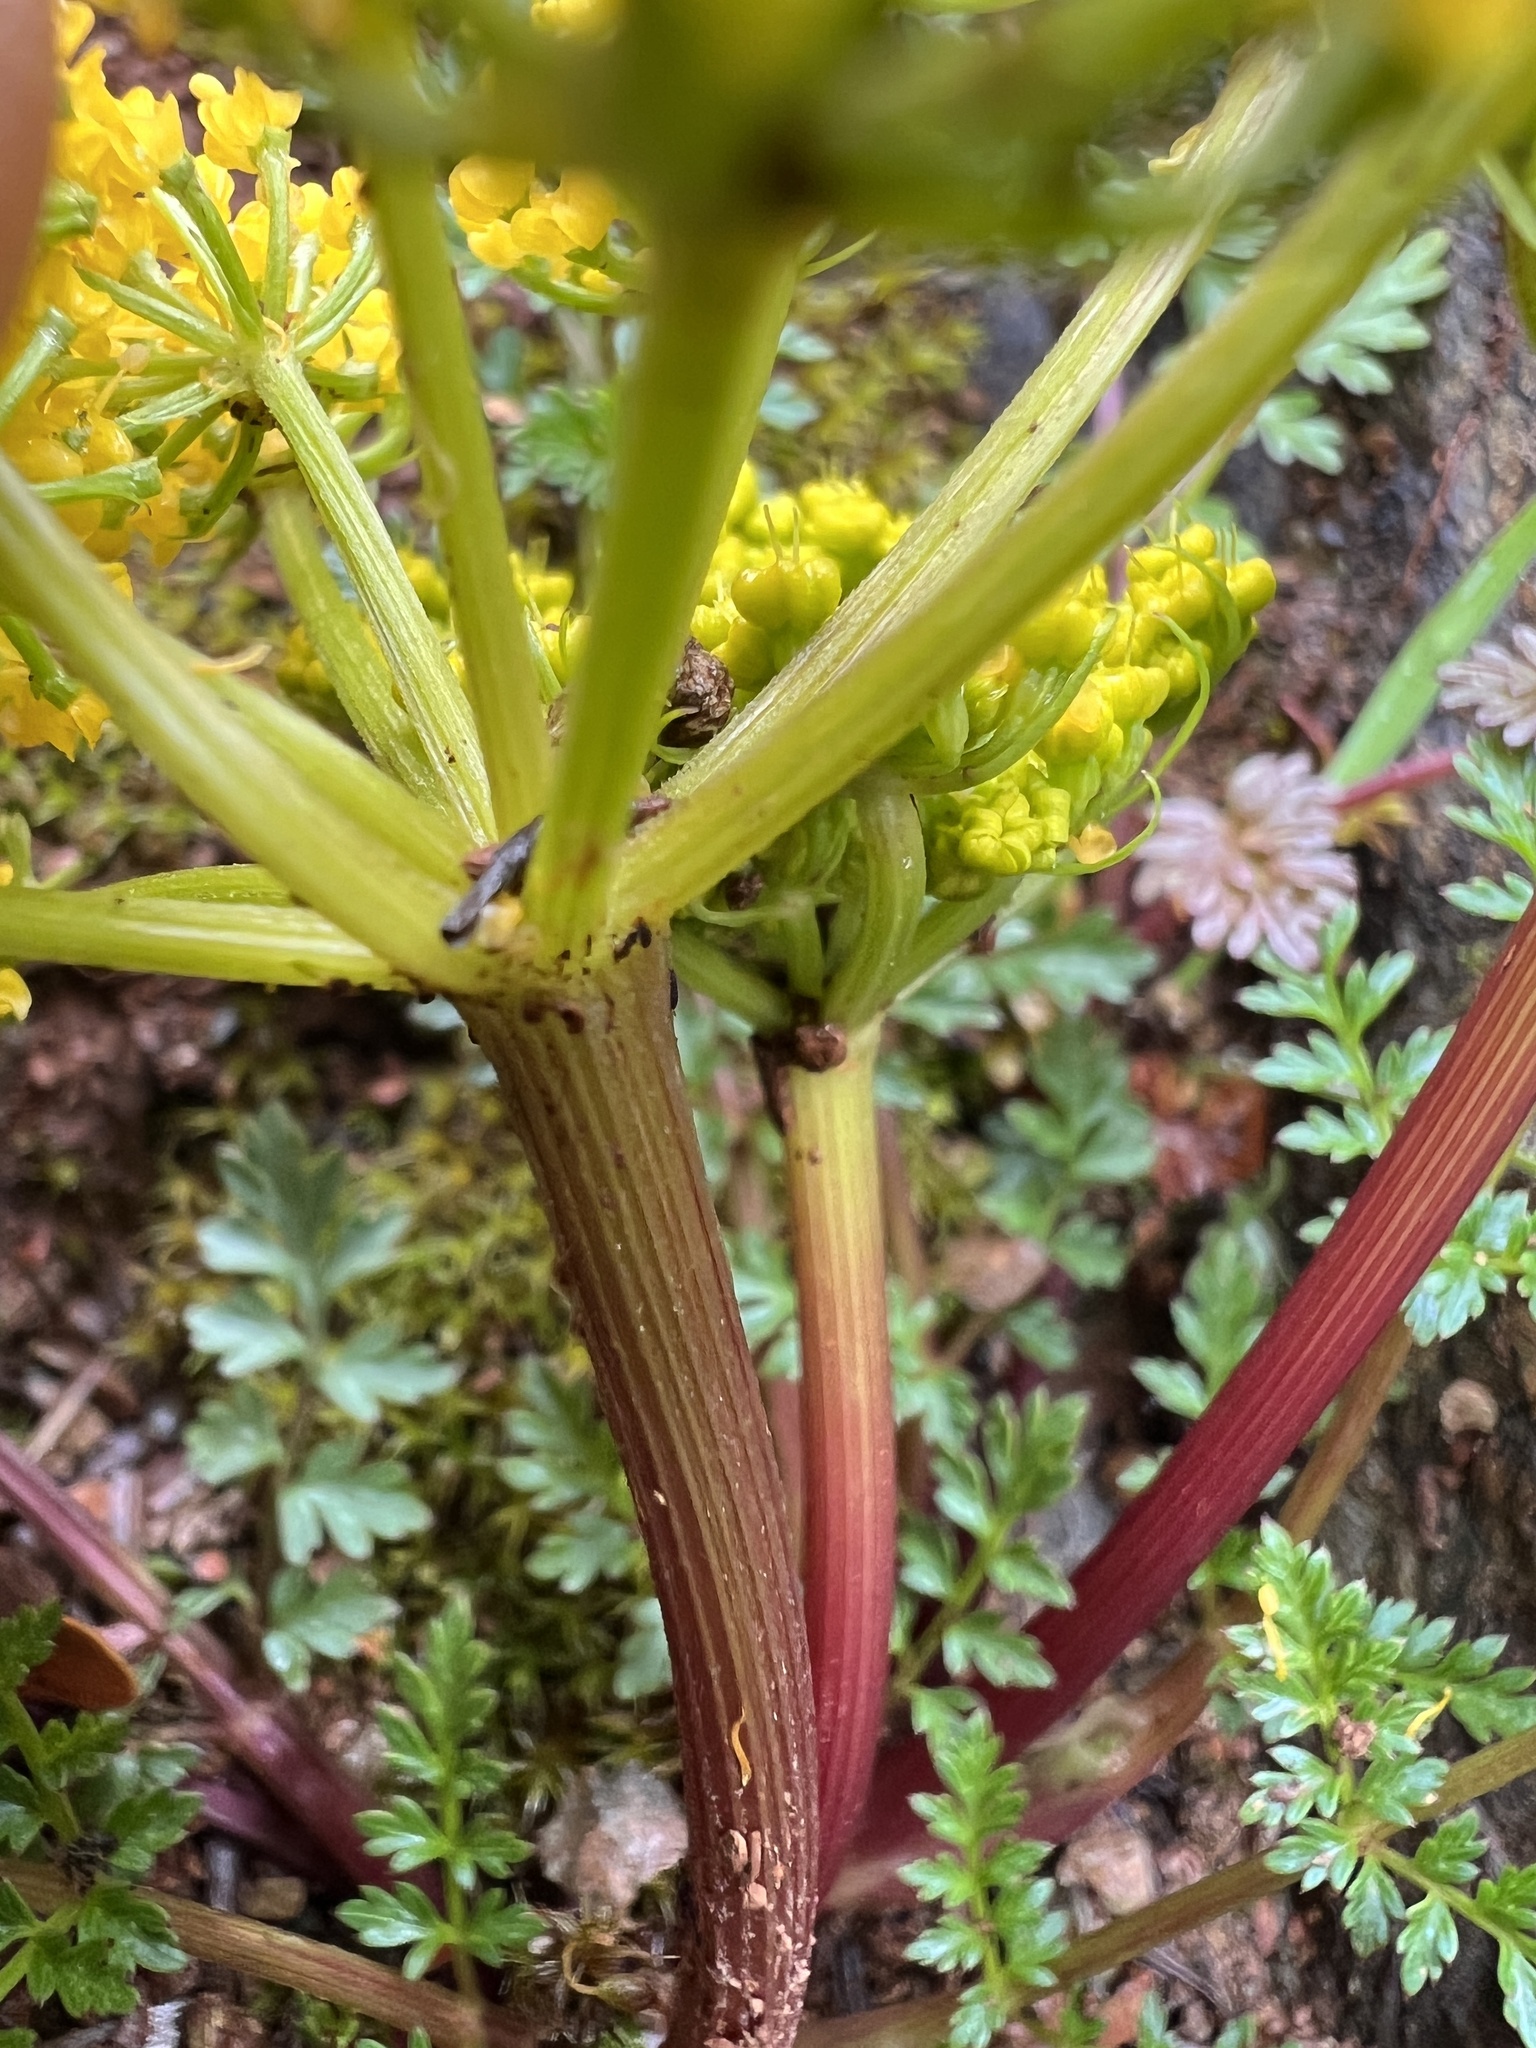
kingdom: Plantae
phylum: Tracheophyta
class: Magnoliopsida
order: Apiales
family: Apiaceae
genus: Lomatium
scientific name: Lomatium hallii
